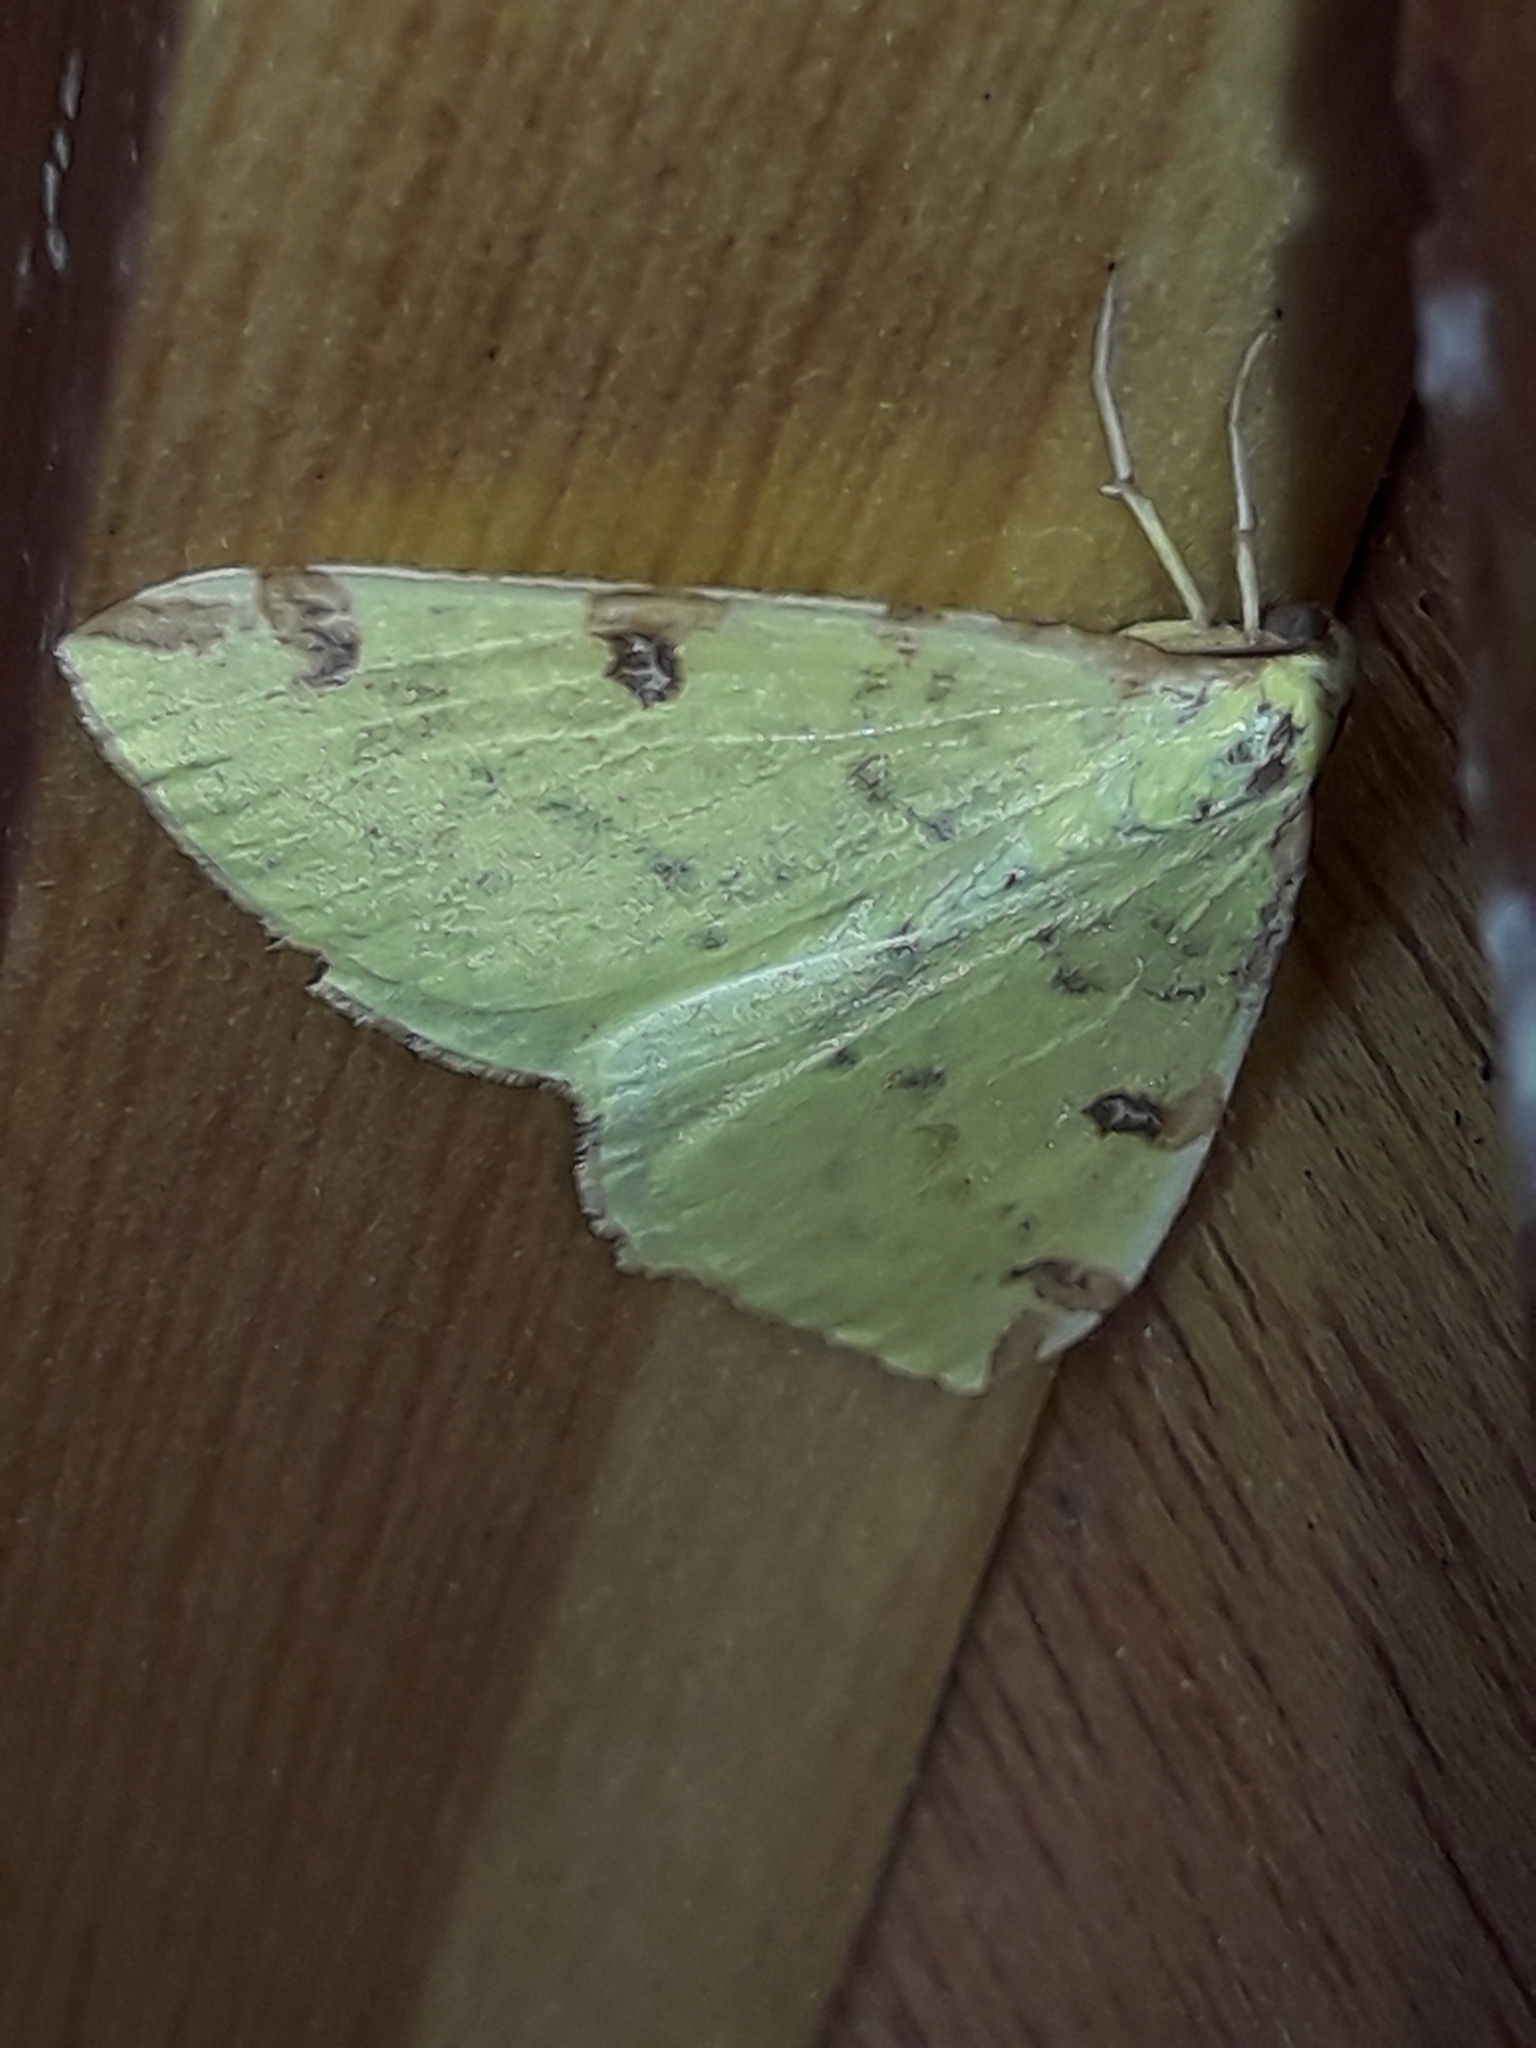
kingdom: Animalia
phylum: Arthropoda
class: Insecta
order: Lepidoptera
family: Geometridae
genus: Opisthograptis
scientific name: Opisthograptis luteolata
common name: Brimstone moth
